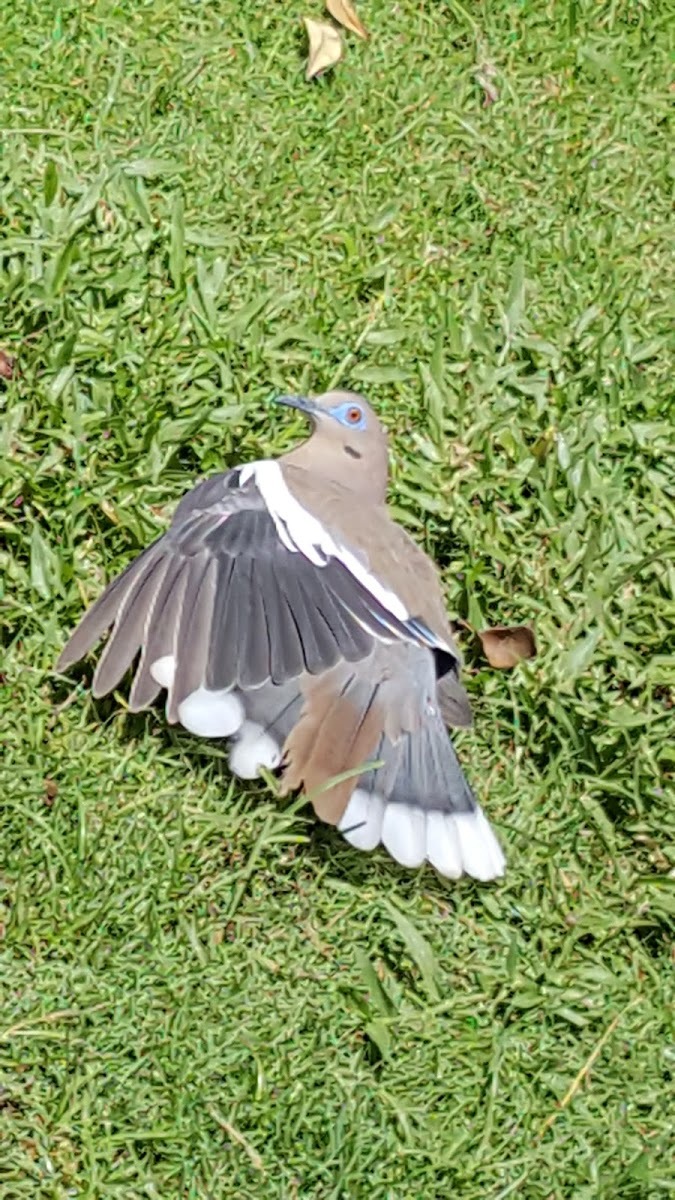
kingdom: Animalia
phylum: Chordata
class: Aves
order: Columbiformes
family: Columbidae
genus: Zenaida
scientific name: Zenaida asiatica
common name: White-winged dove
